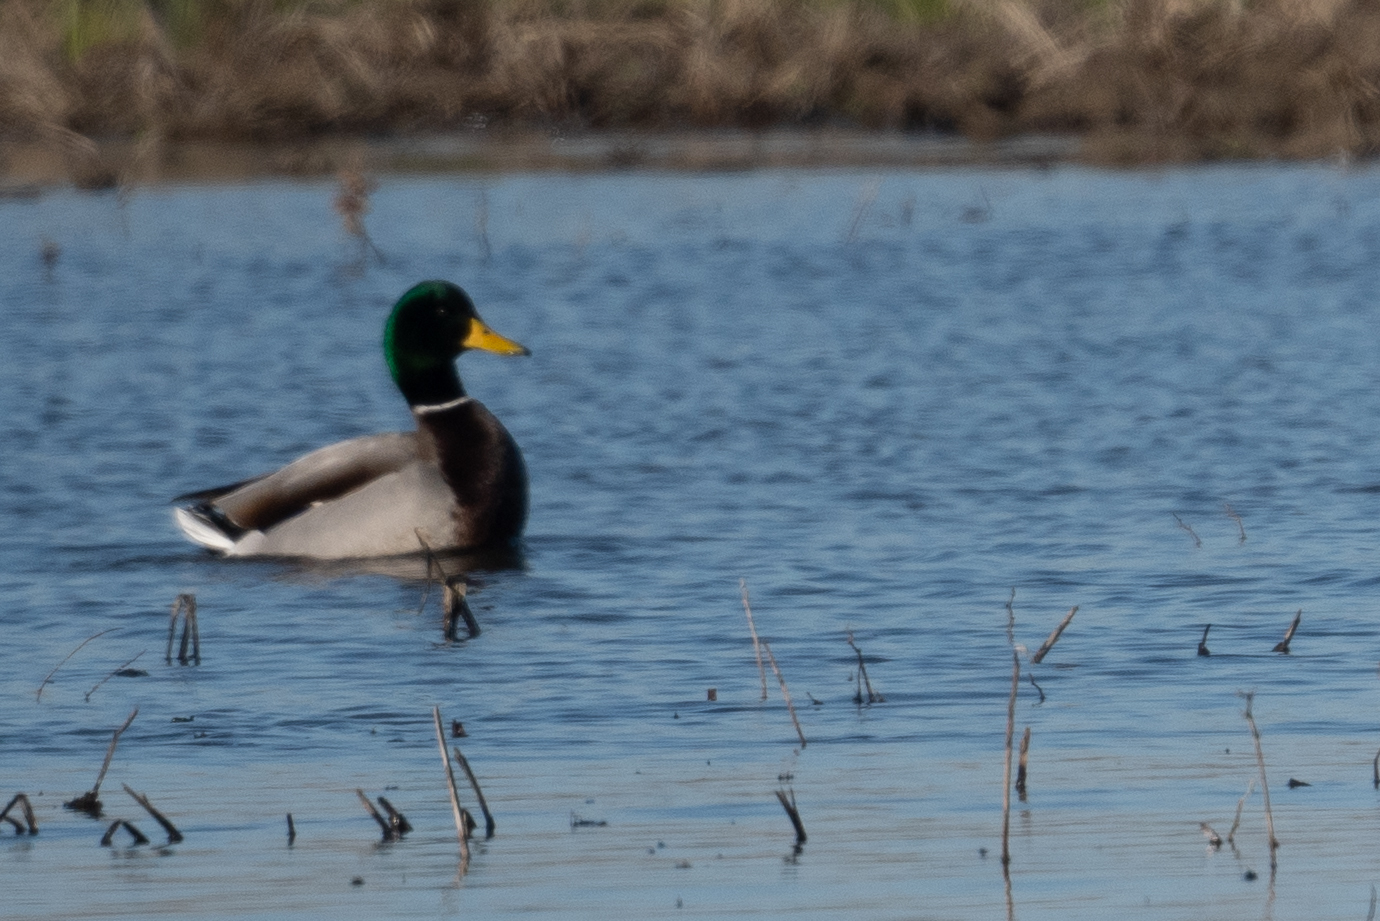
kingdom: Animalia
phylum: Chordata
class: Aves
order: Anseriformes
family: Anatidae
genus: Anas
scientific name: Anas platyrhynchos
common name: Mallard
